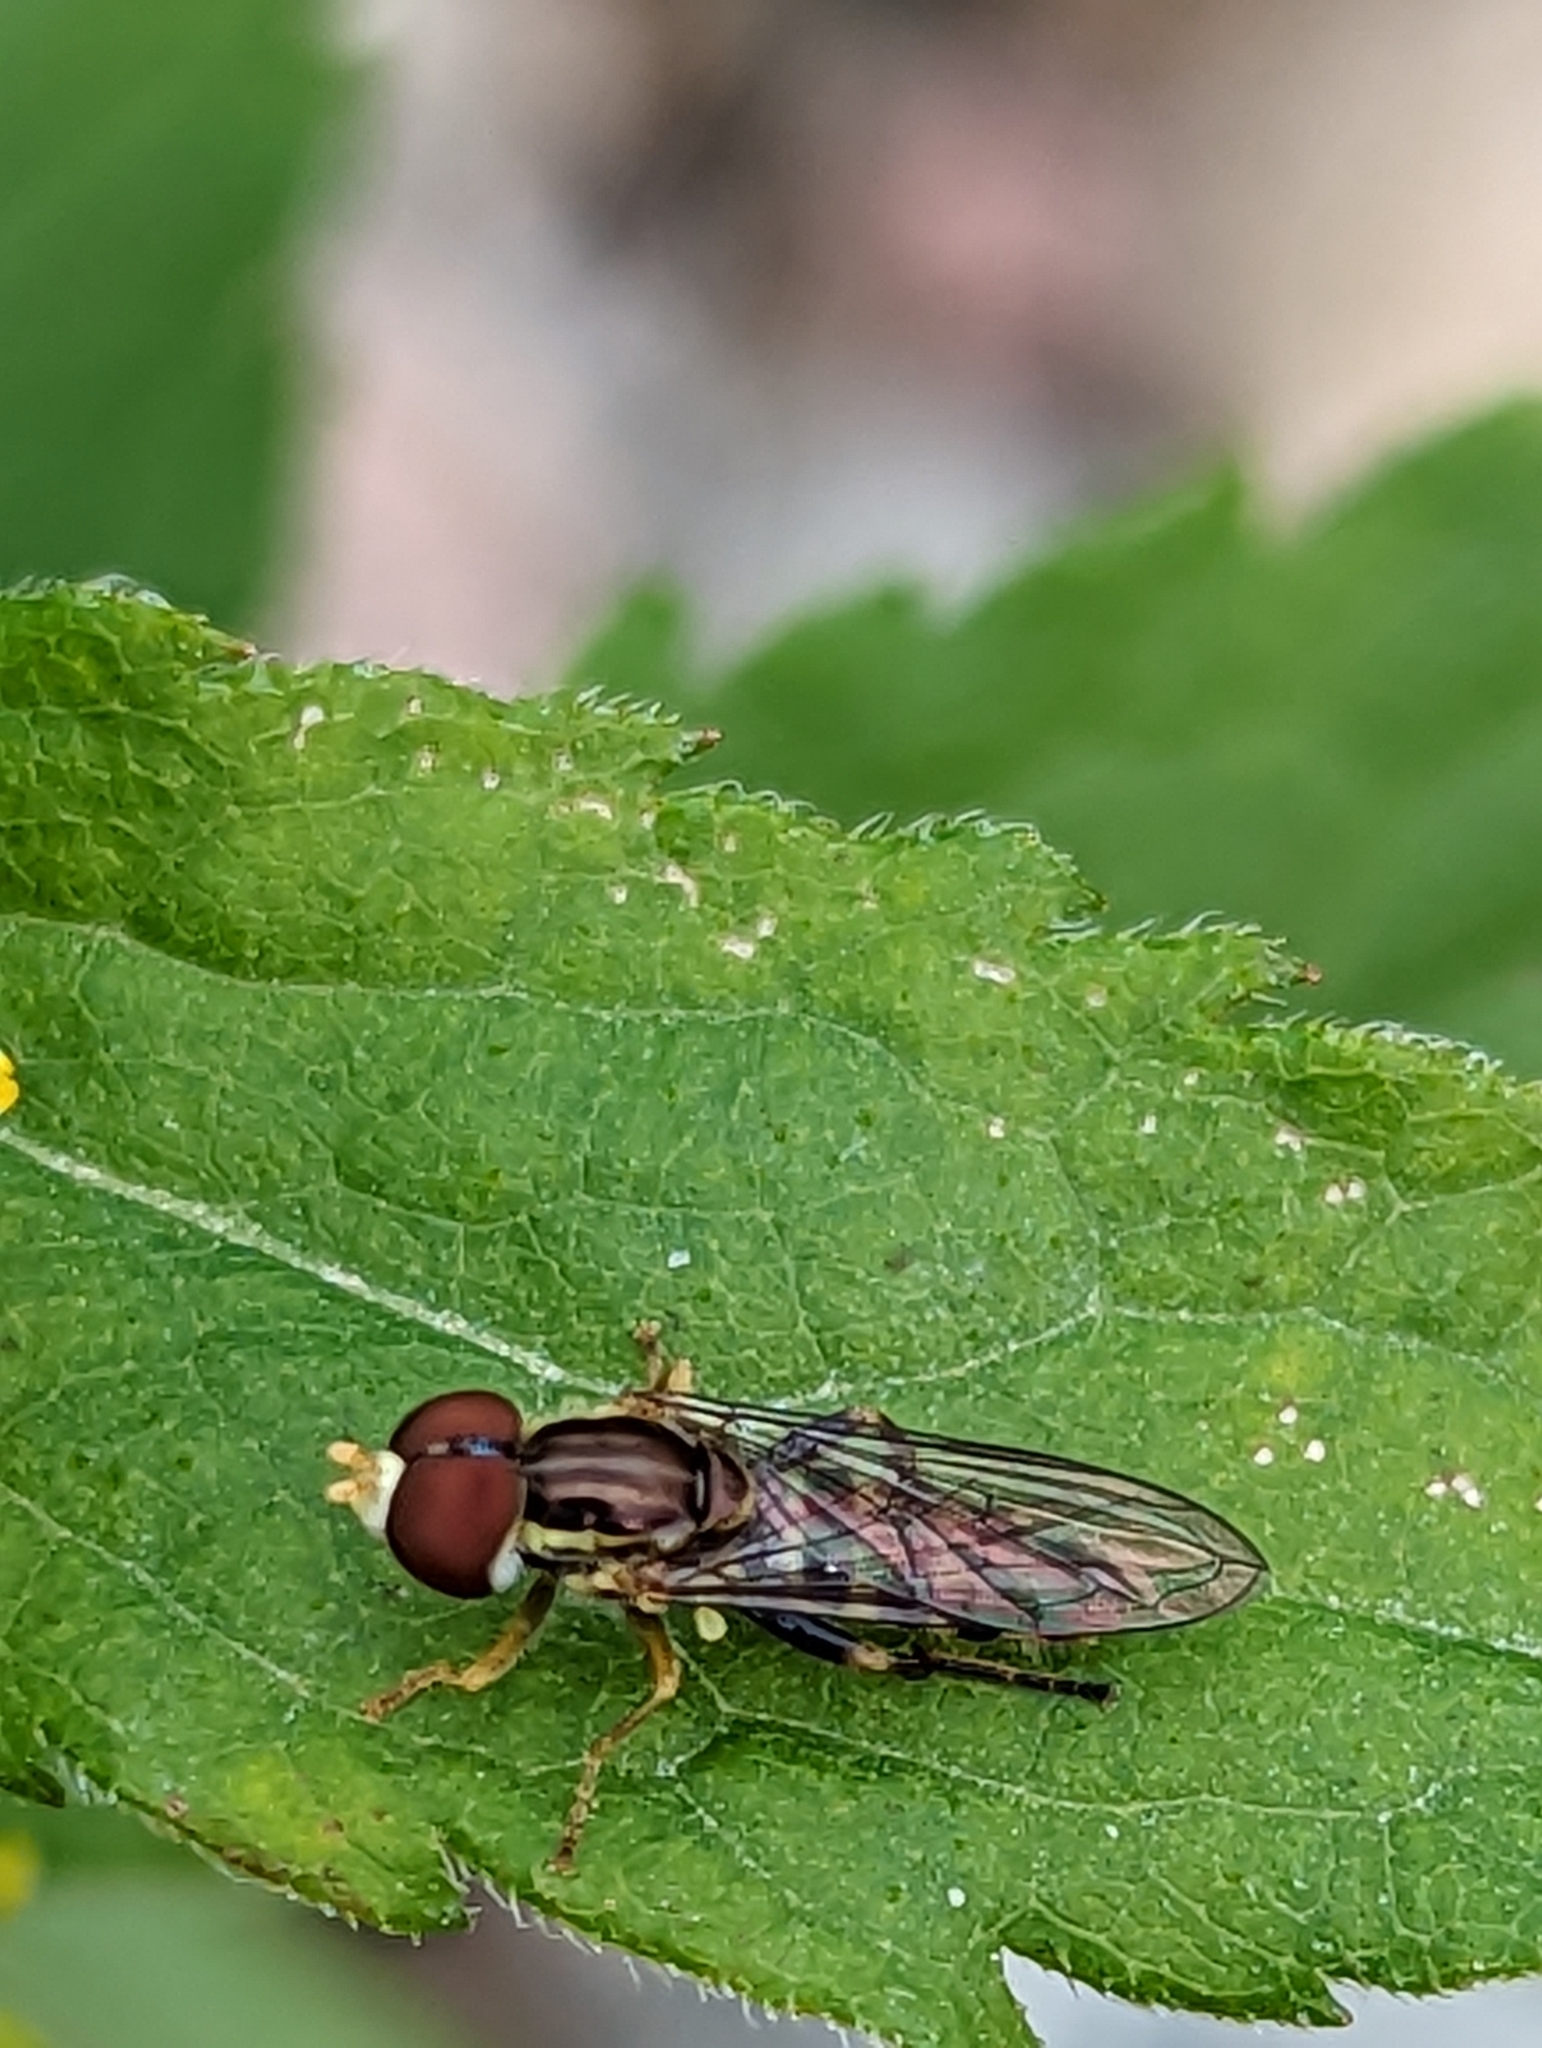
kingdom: Animalia
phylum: Arthropoda
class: Insecta
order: Diptera
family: Syrphidae
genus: Toxomerus
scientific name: Toxomerus geminatus
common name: Eastern calligrapher
